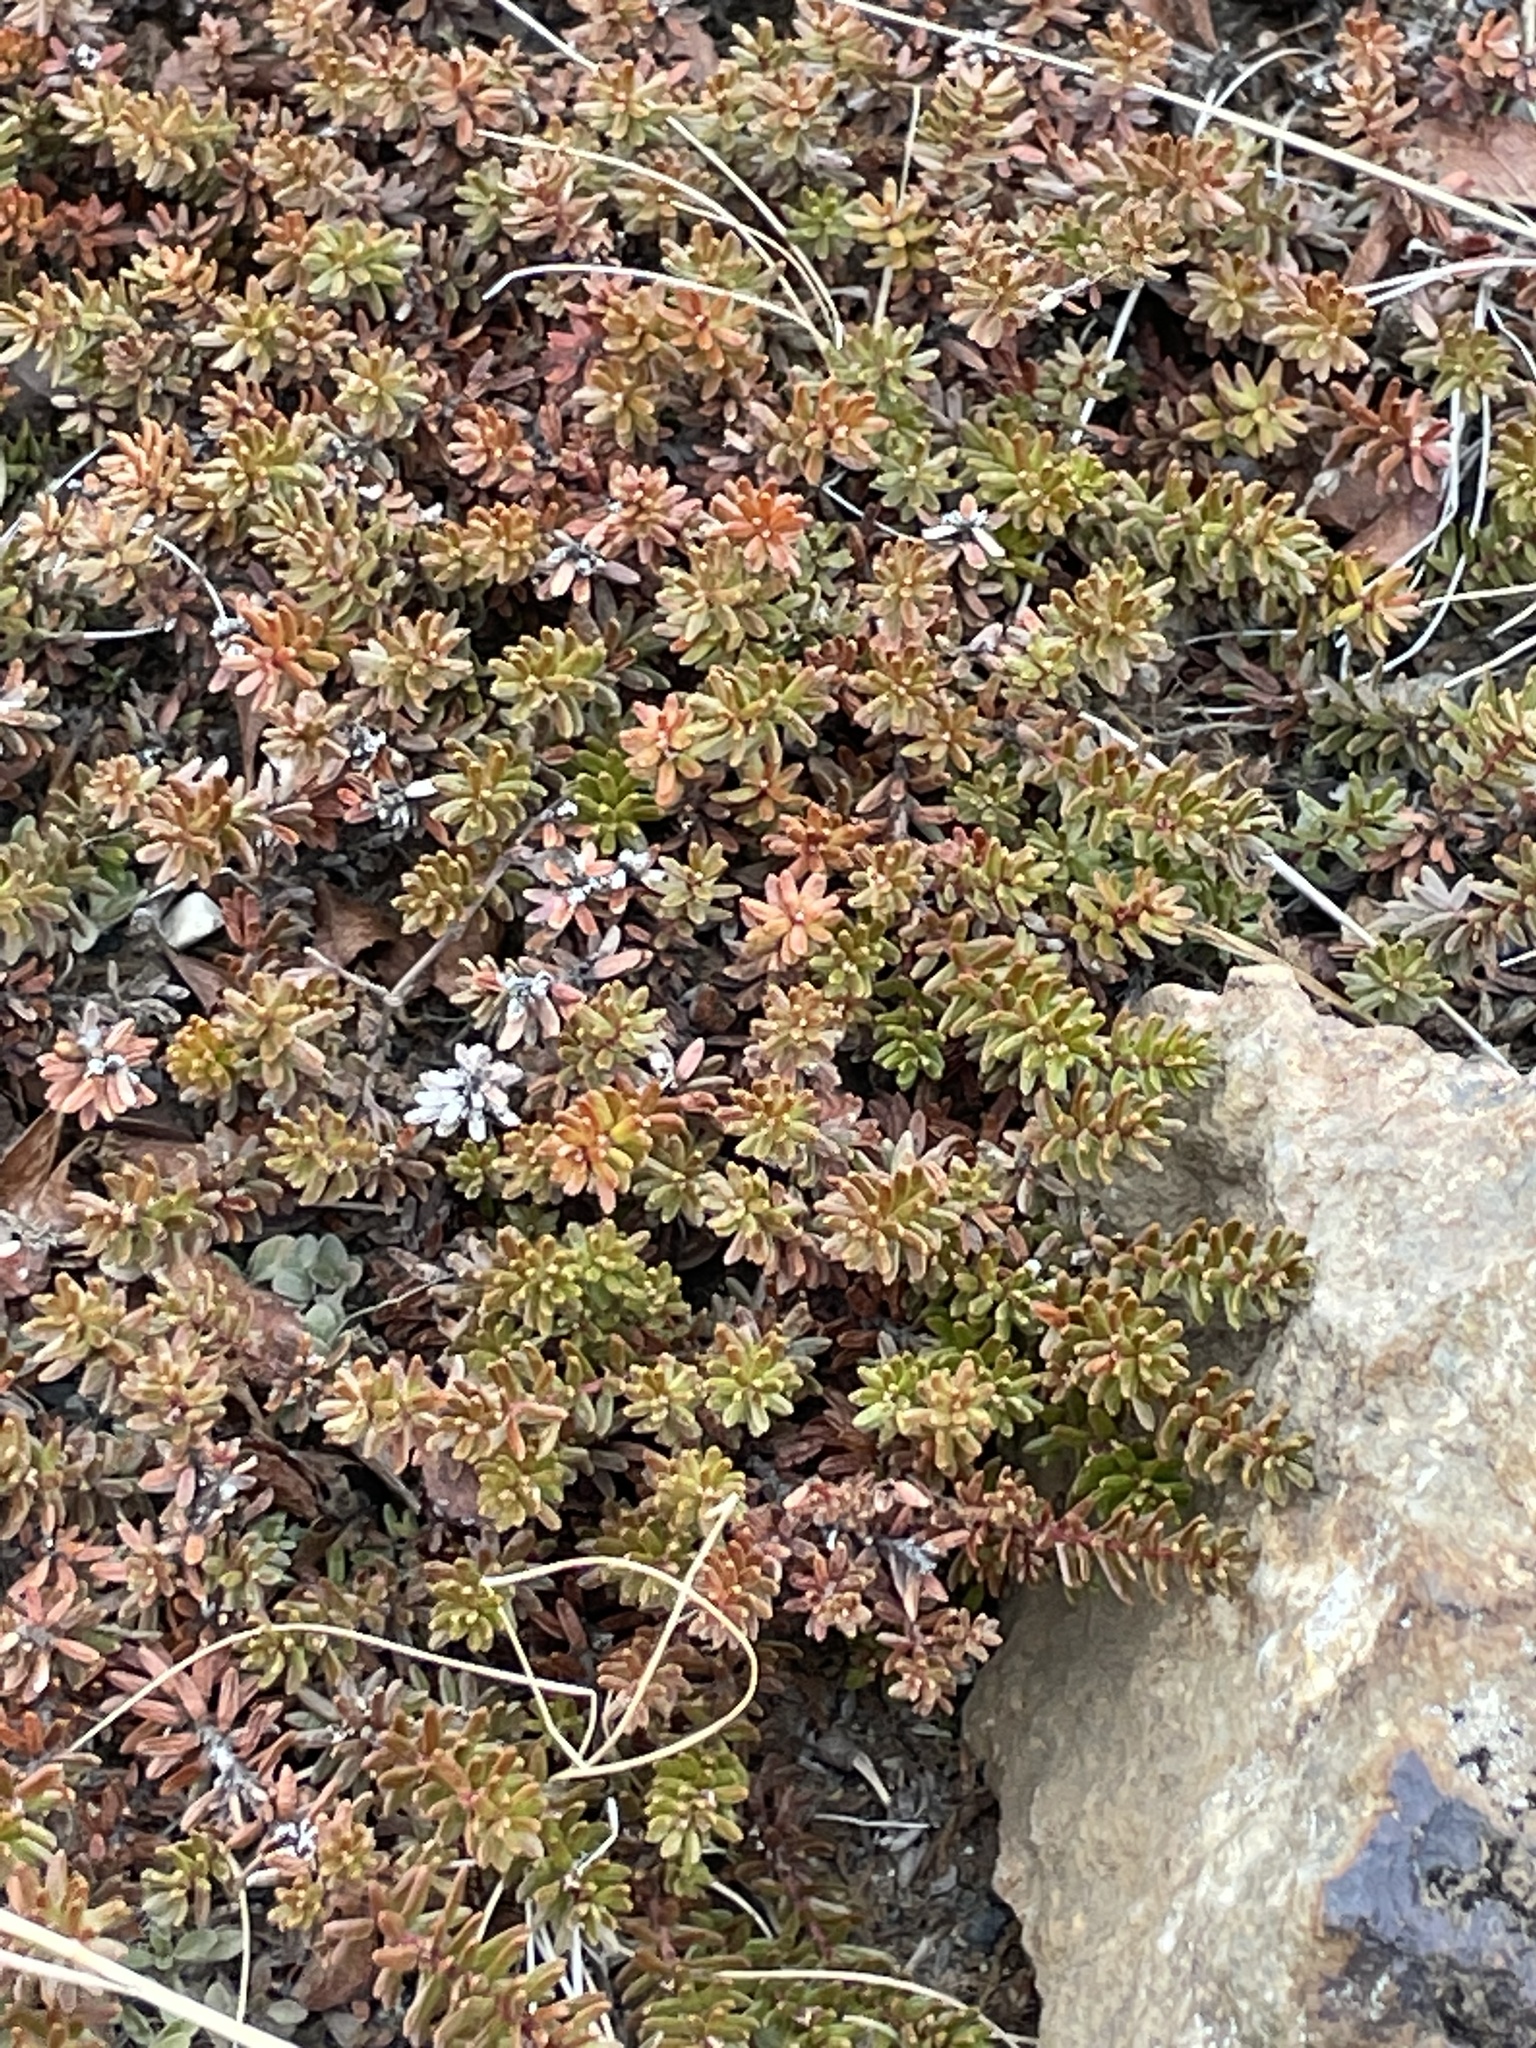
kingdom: Plantae
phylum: Tracheophyta
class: Magnoliopsida
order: Ericales
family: Ericaceae
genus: Empetrum
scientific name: Empetrum nigrum
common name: Black crowberry
